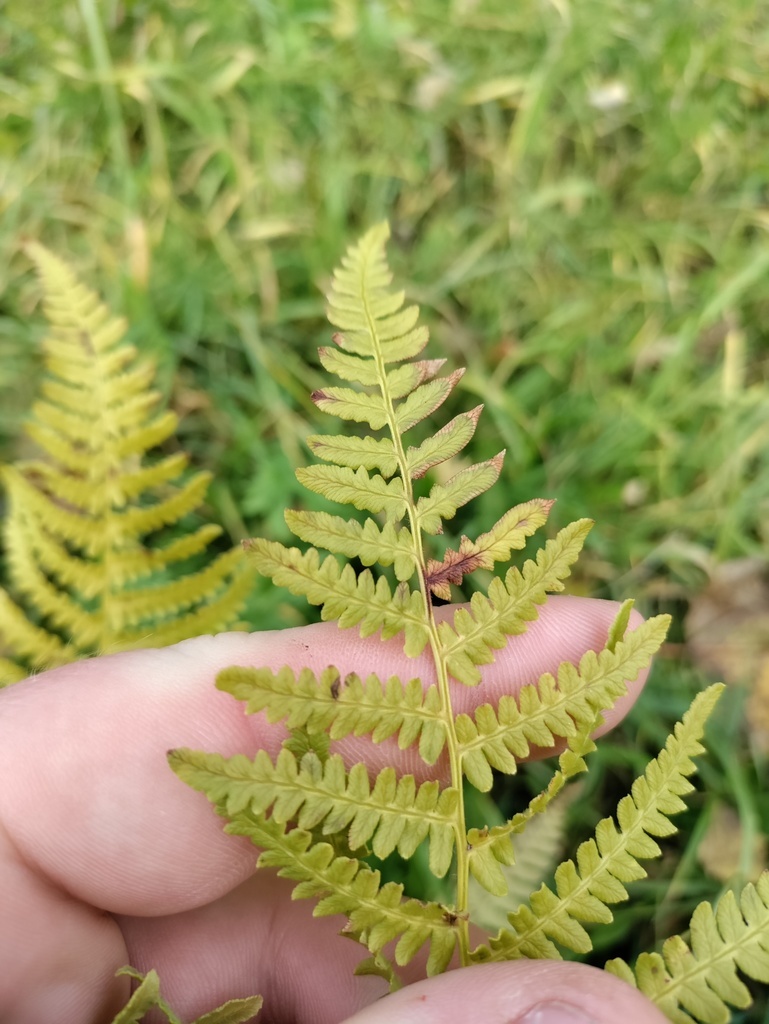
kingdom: Plantae
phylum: Tracheophyta
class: Polypodiopsida
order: Polypodiales
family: Dennstaedtiaceae
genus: Pteridium
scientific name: Pteridium aquilinum
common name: Bracken
